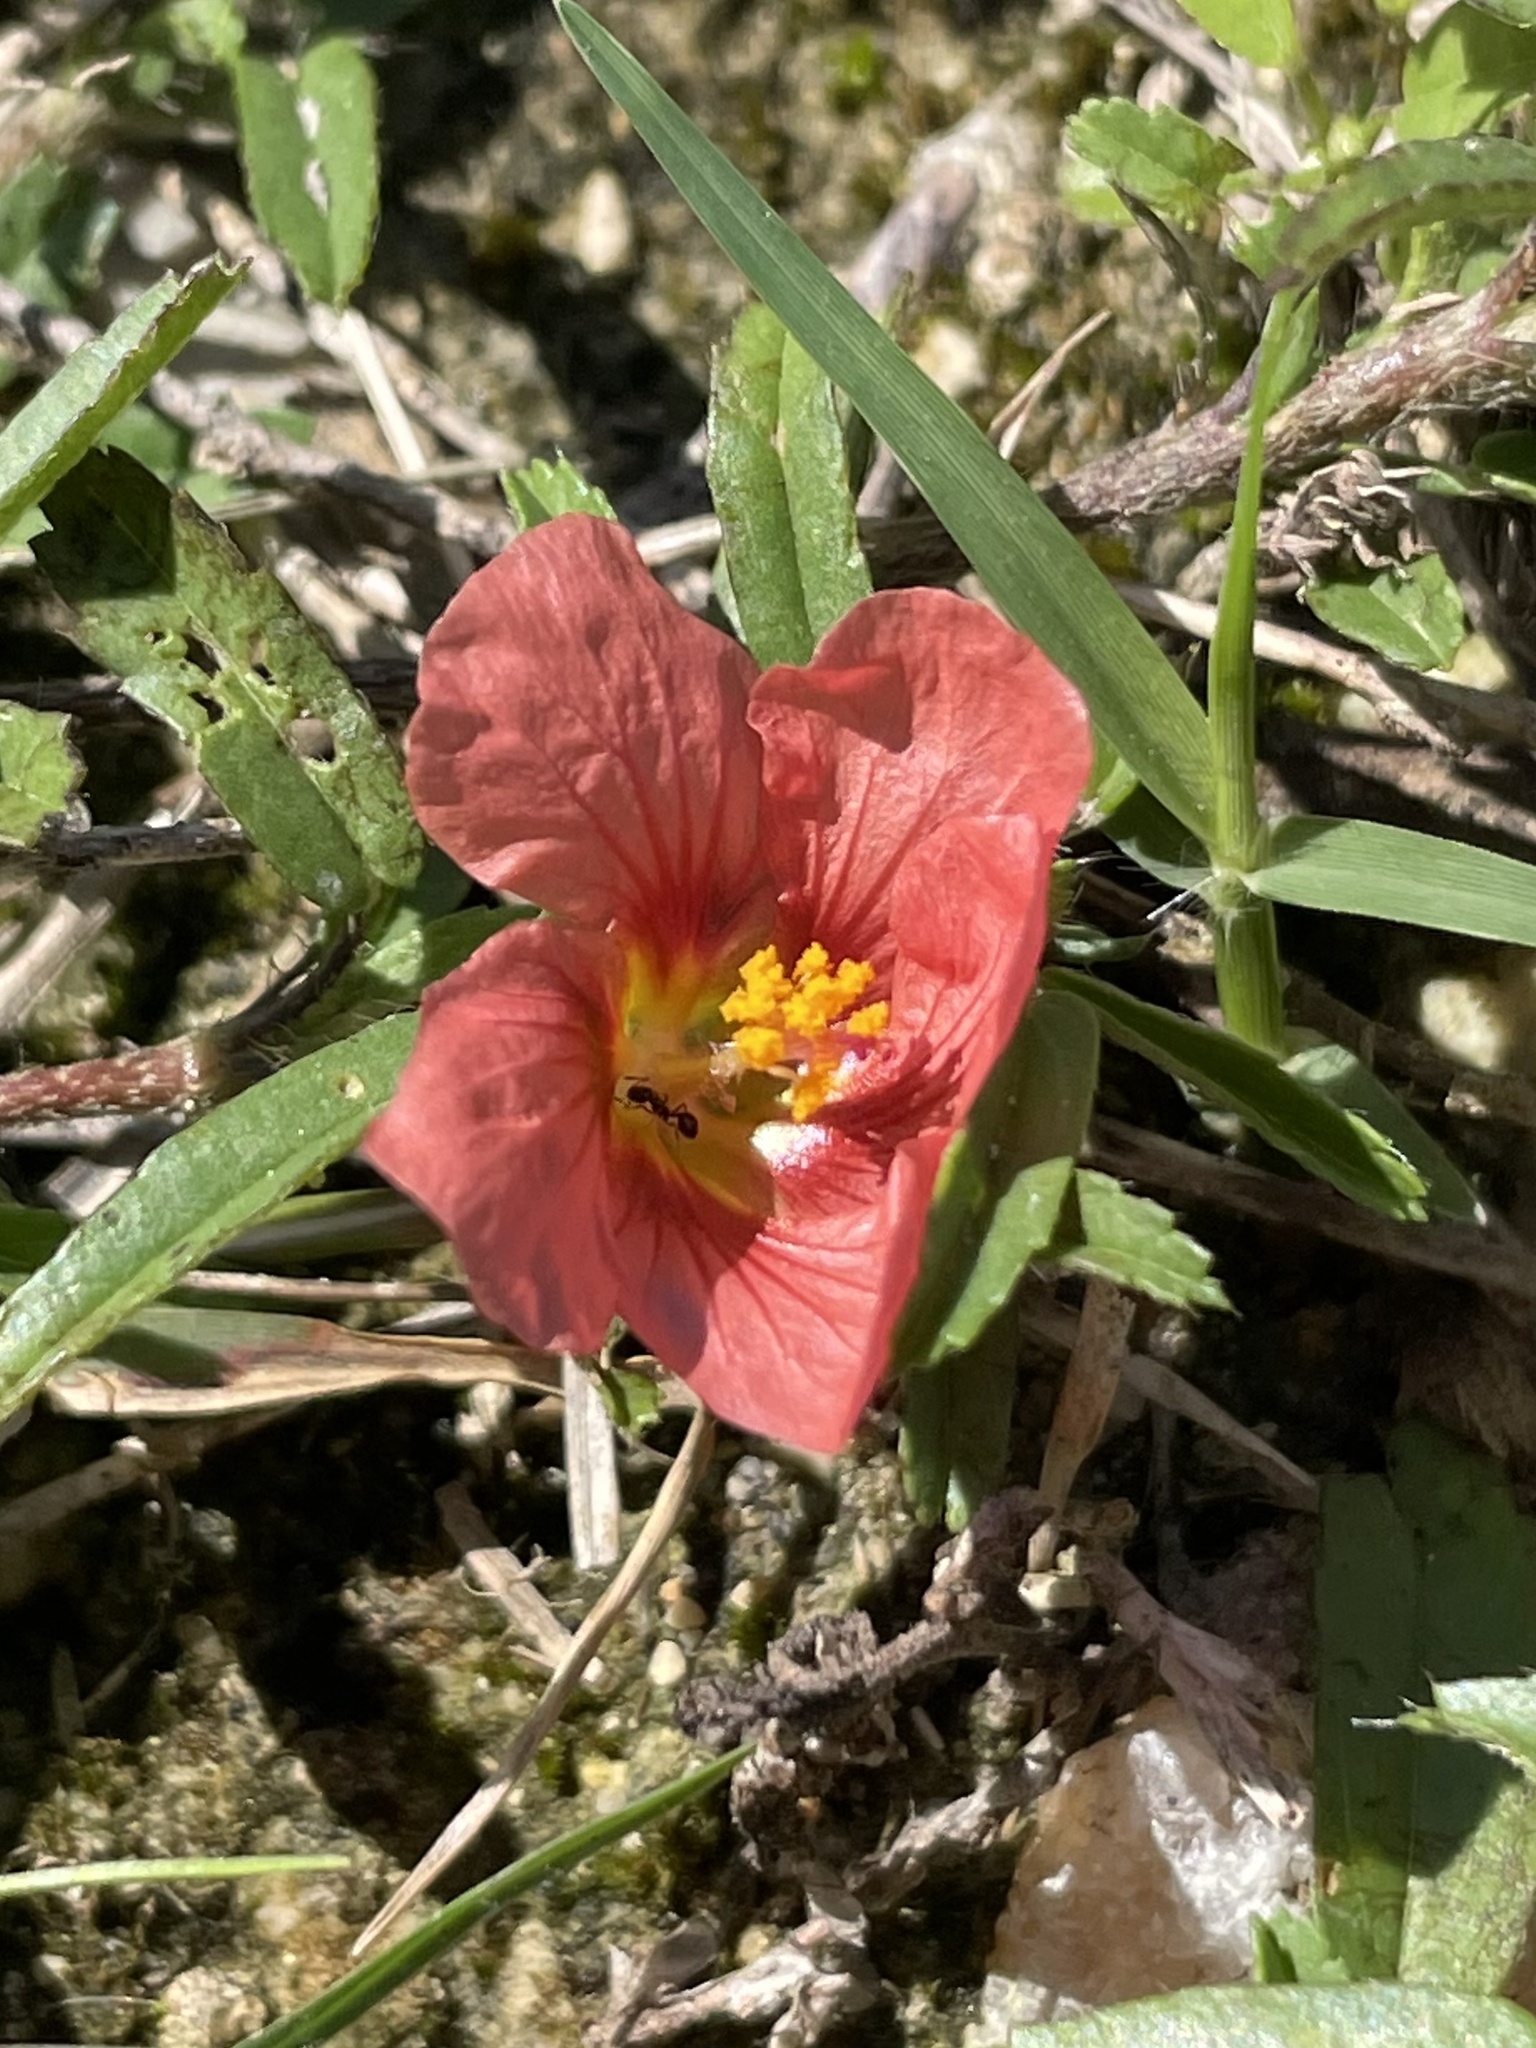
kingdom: Plantae
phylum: Tracheophyta
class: Magnoliopsida
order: Malvales
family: Malvaceae
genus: Sida
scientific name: Sida ciliaris
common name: Bracted fanpetals
